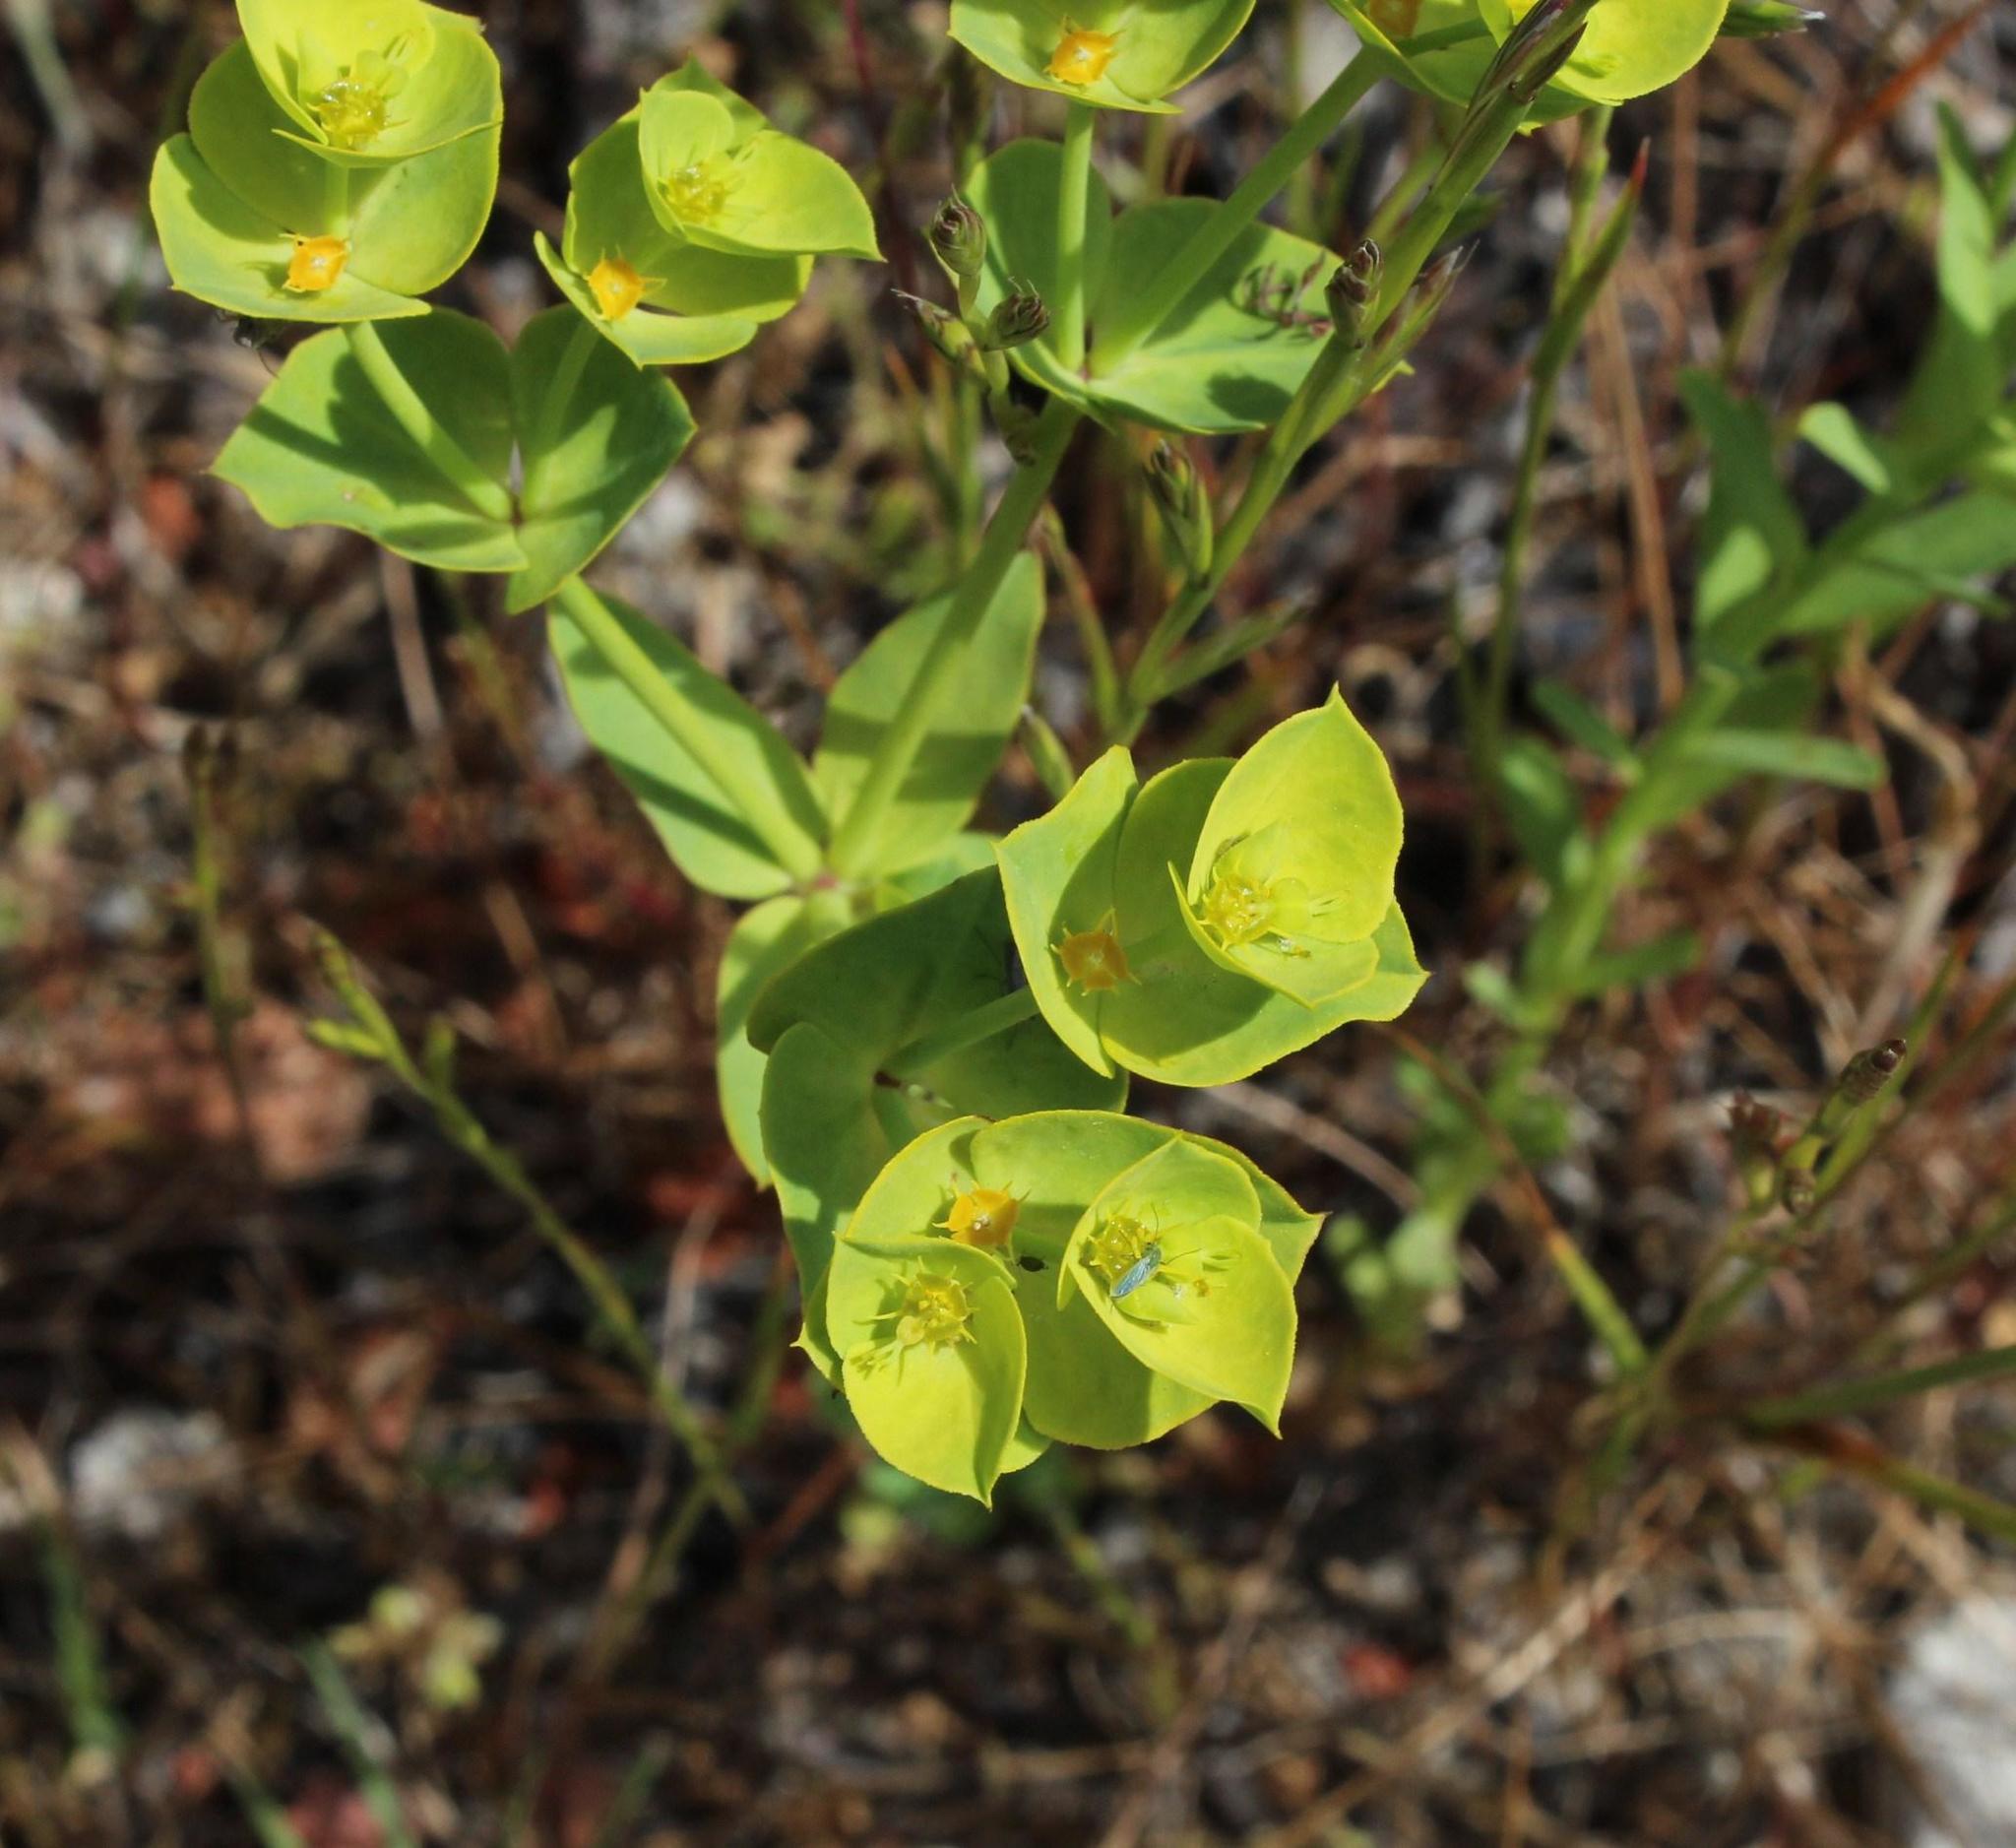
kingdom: Plantae
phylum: Tracheophyta
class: Magnoliopsida
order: Malpighiales
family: Euphorbiaceae
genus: Euphorbia
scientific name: Euphorbia terracina
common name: Geraldton carnation weed
